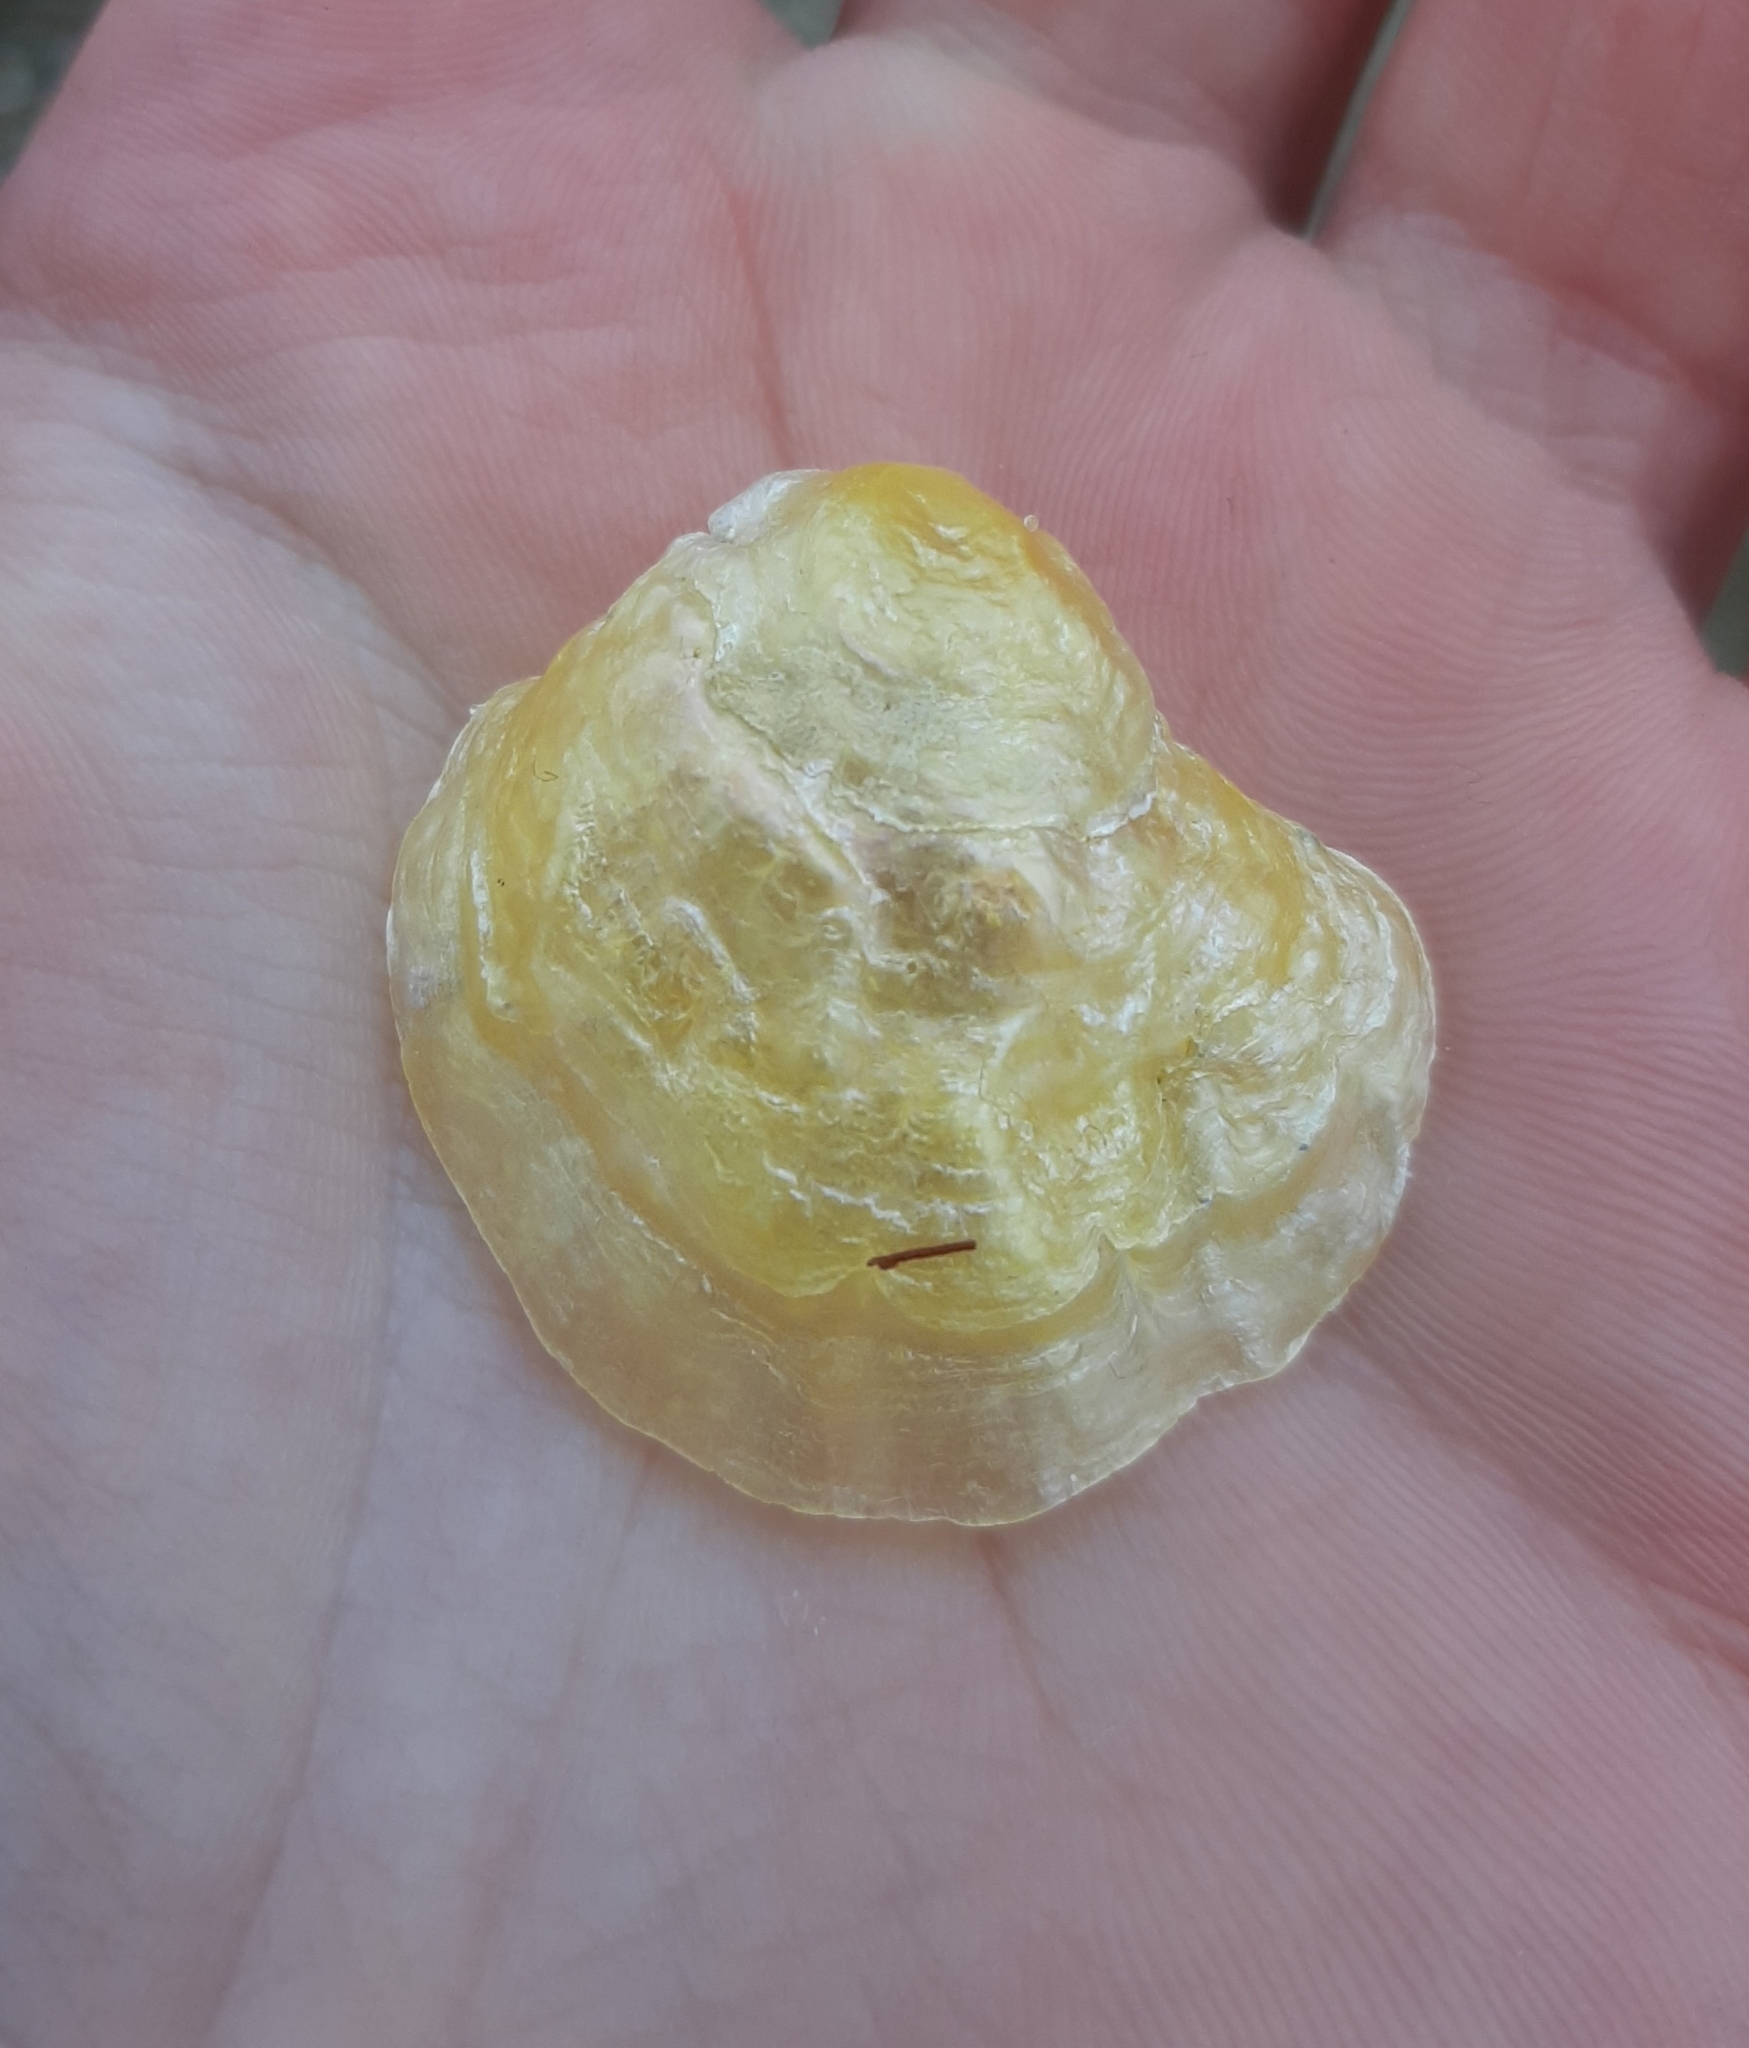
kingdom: Animalia
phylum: Mollusca
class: Bivalvia
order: Pectinida
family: Anomiidae
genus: Anomia
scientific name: Anomia simplex
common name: Common jingle shell
